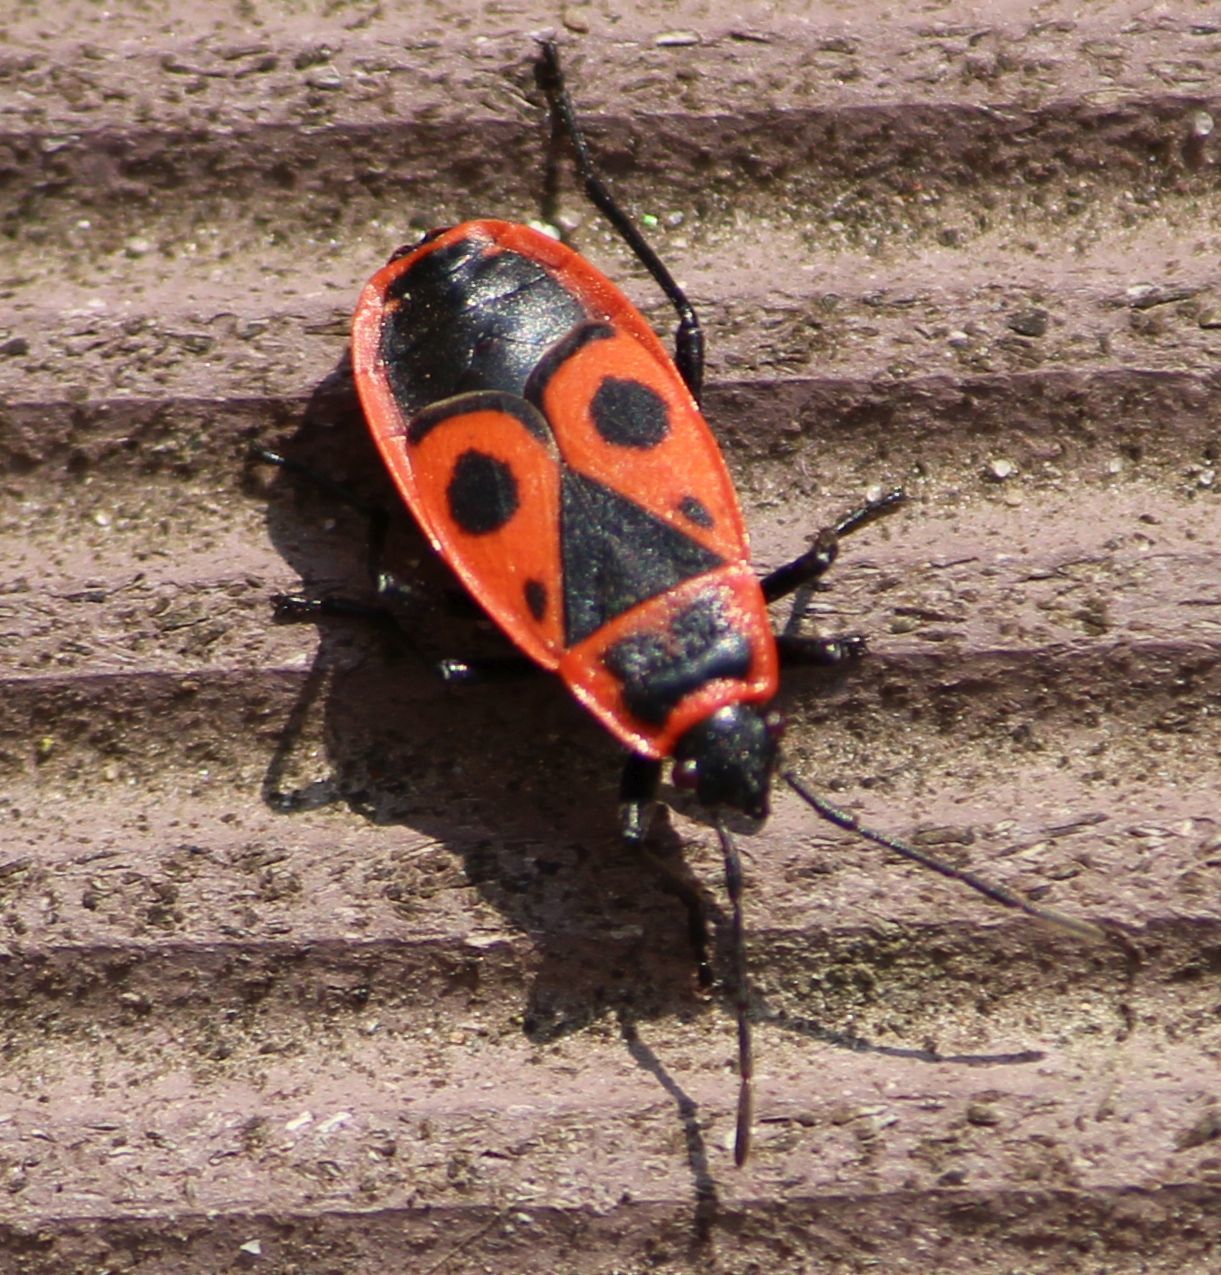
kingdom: Animalia
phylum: Arthropoda
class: Insecta
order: Hemiptera
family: Pyrrhocoridae
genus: Pyrrhocoris
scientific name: Pyrrhocoris apterus
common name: Firebug
